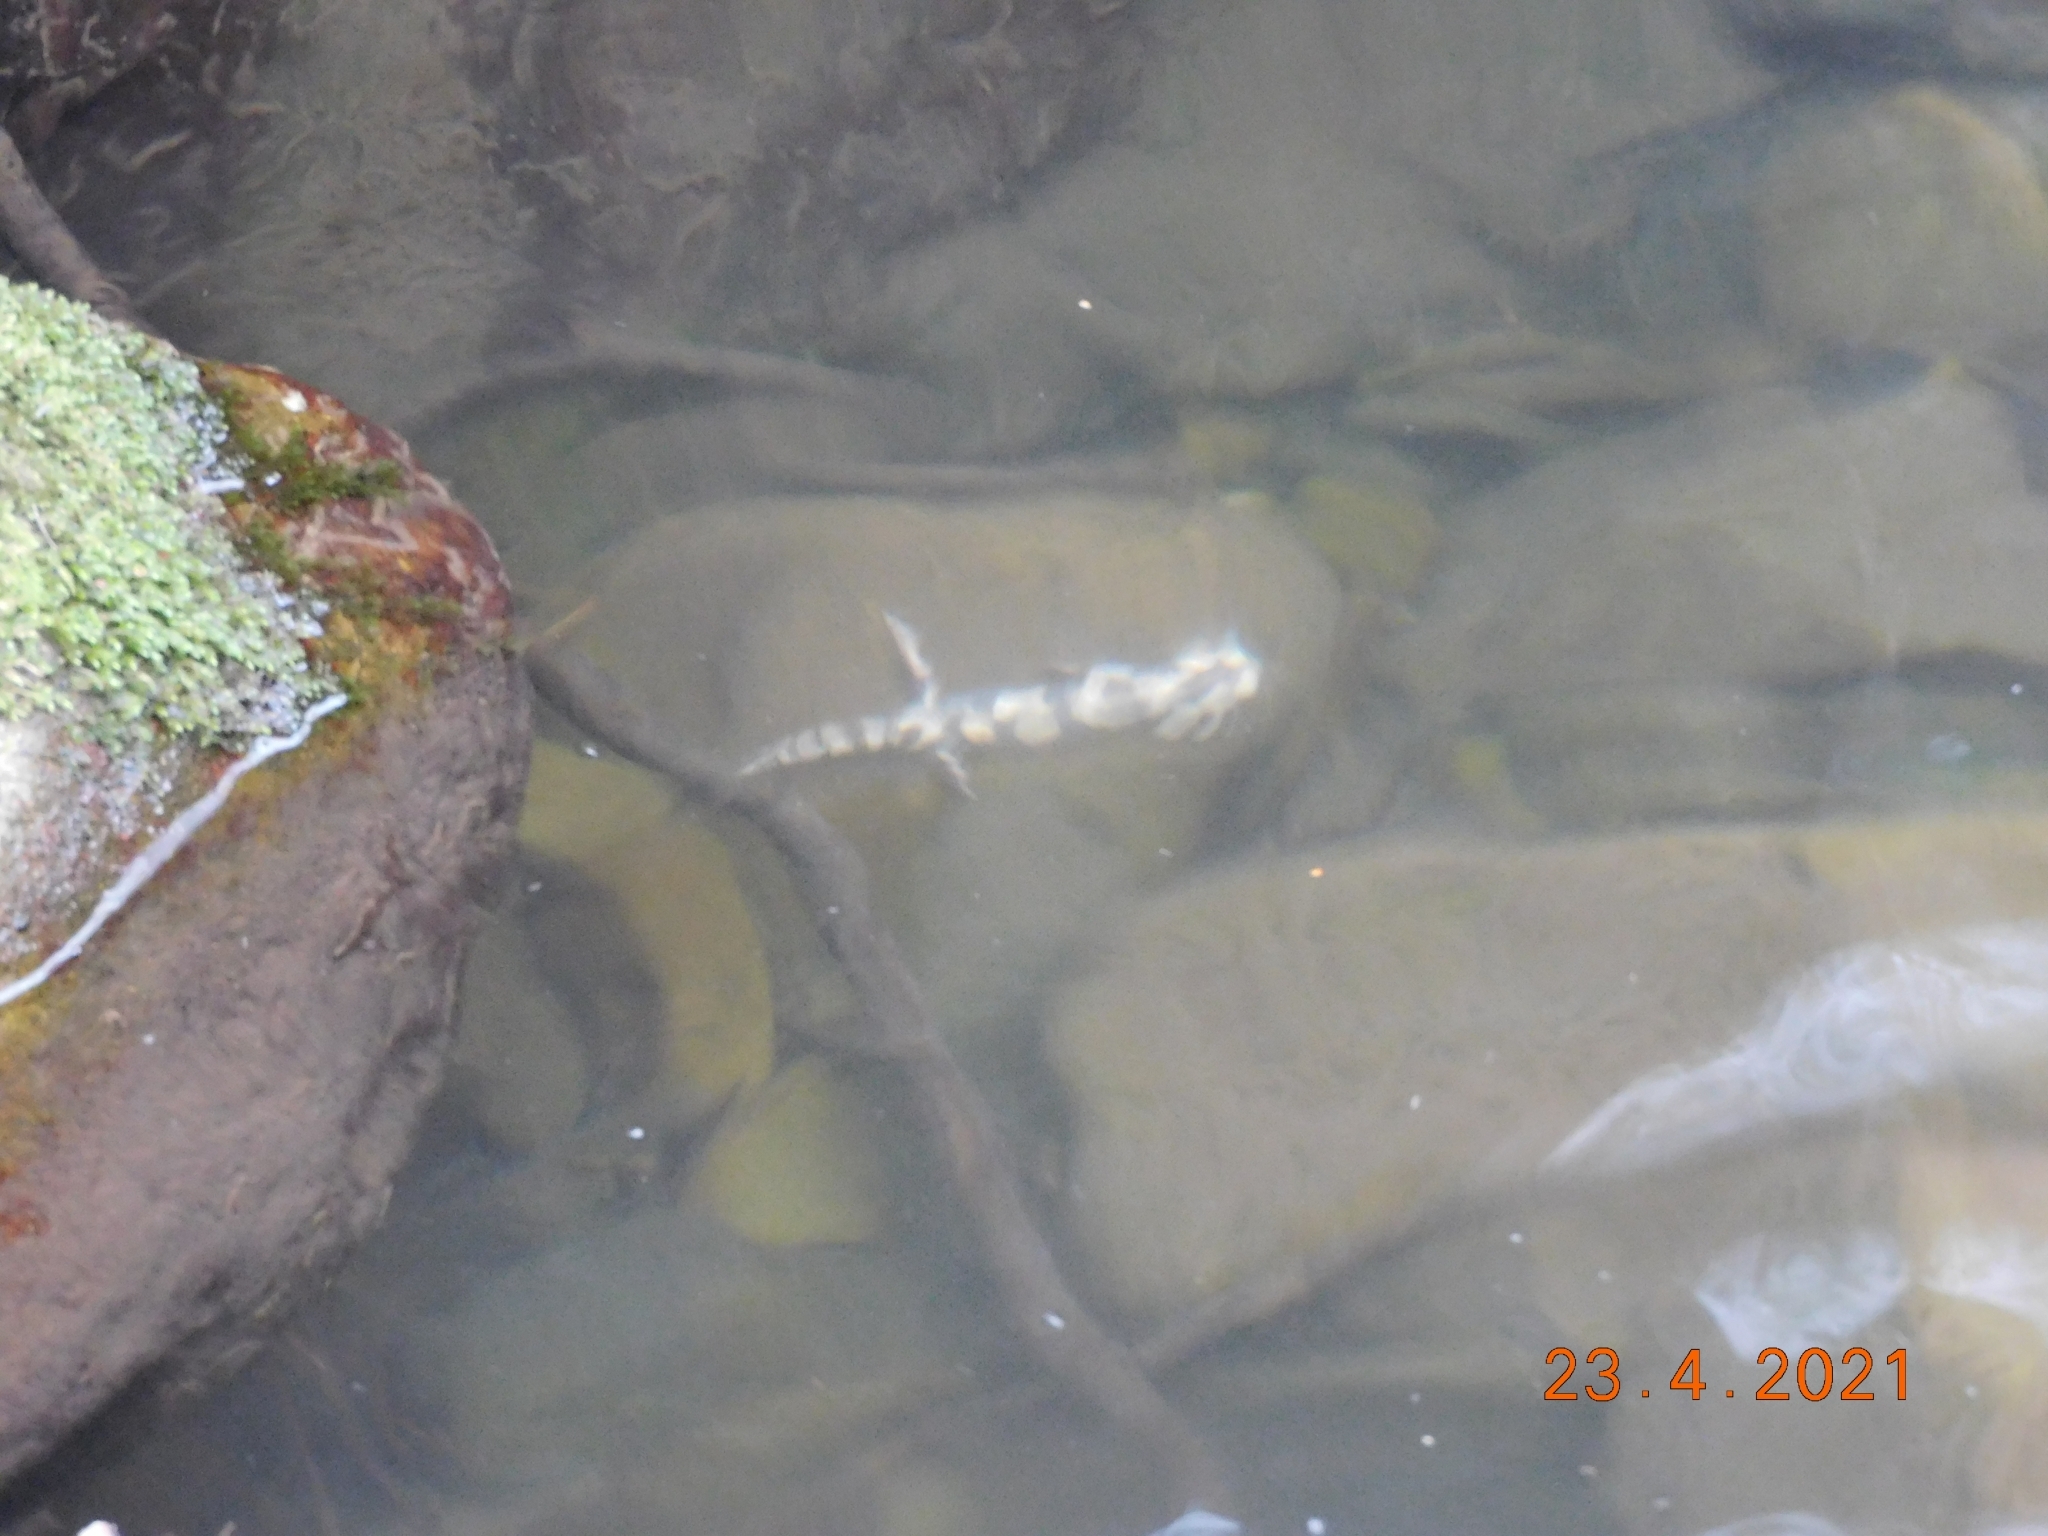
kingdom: Animalia
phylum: Chordata
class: Amphibia
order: Caudata
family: Salamandridae
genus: Salamandra
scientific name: Salamandra salamandra
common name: Fire salamander
